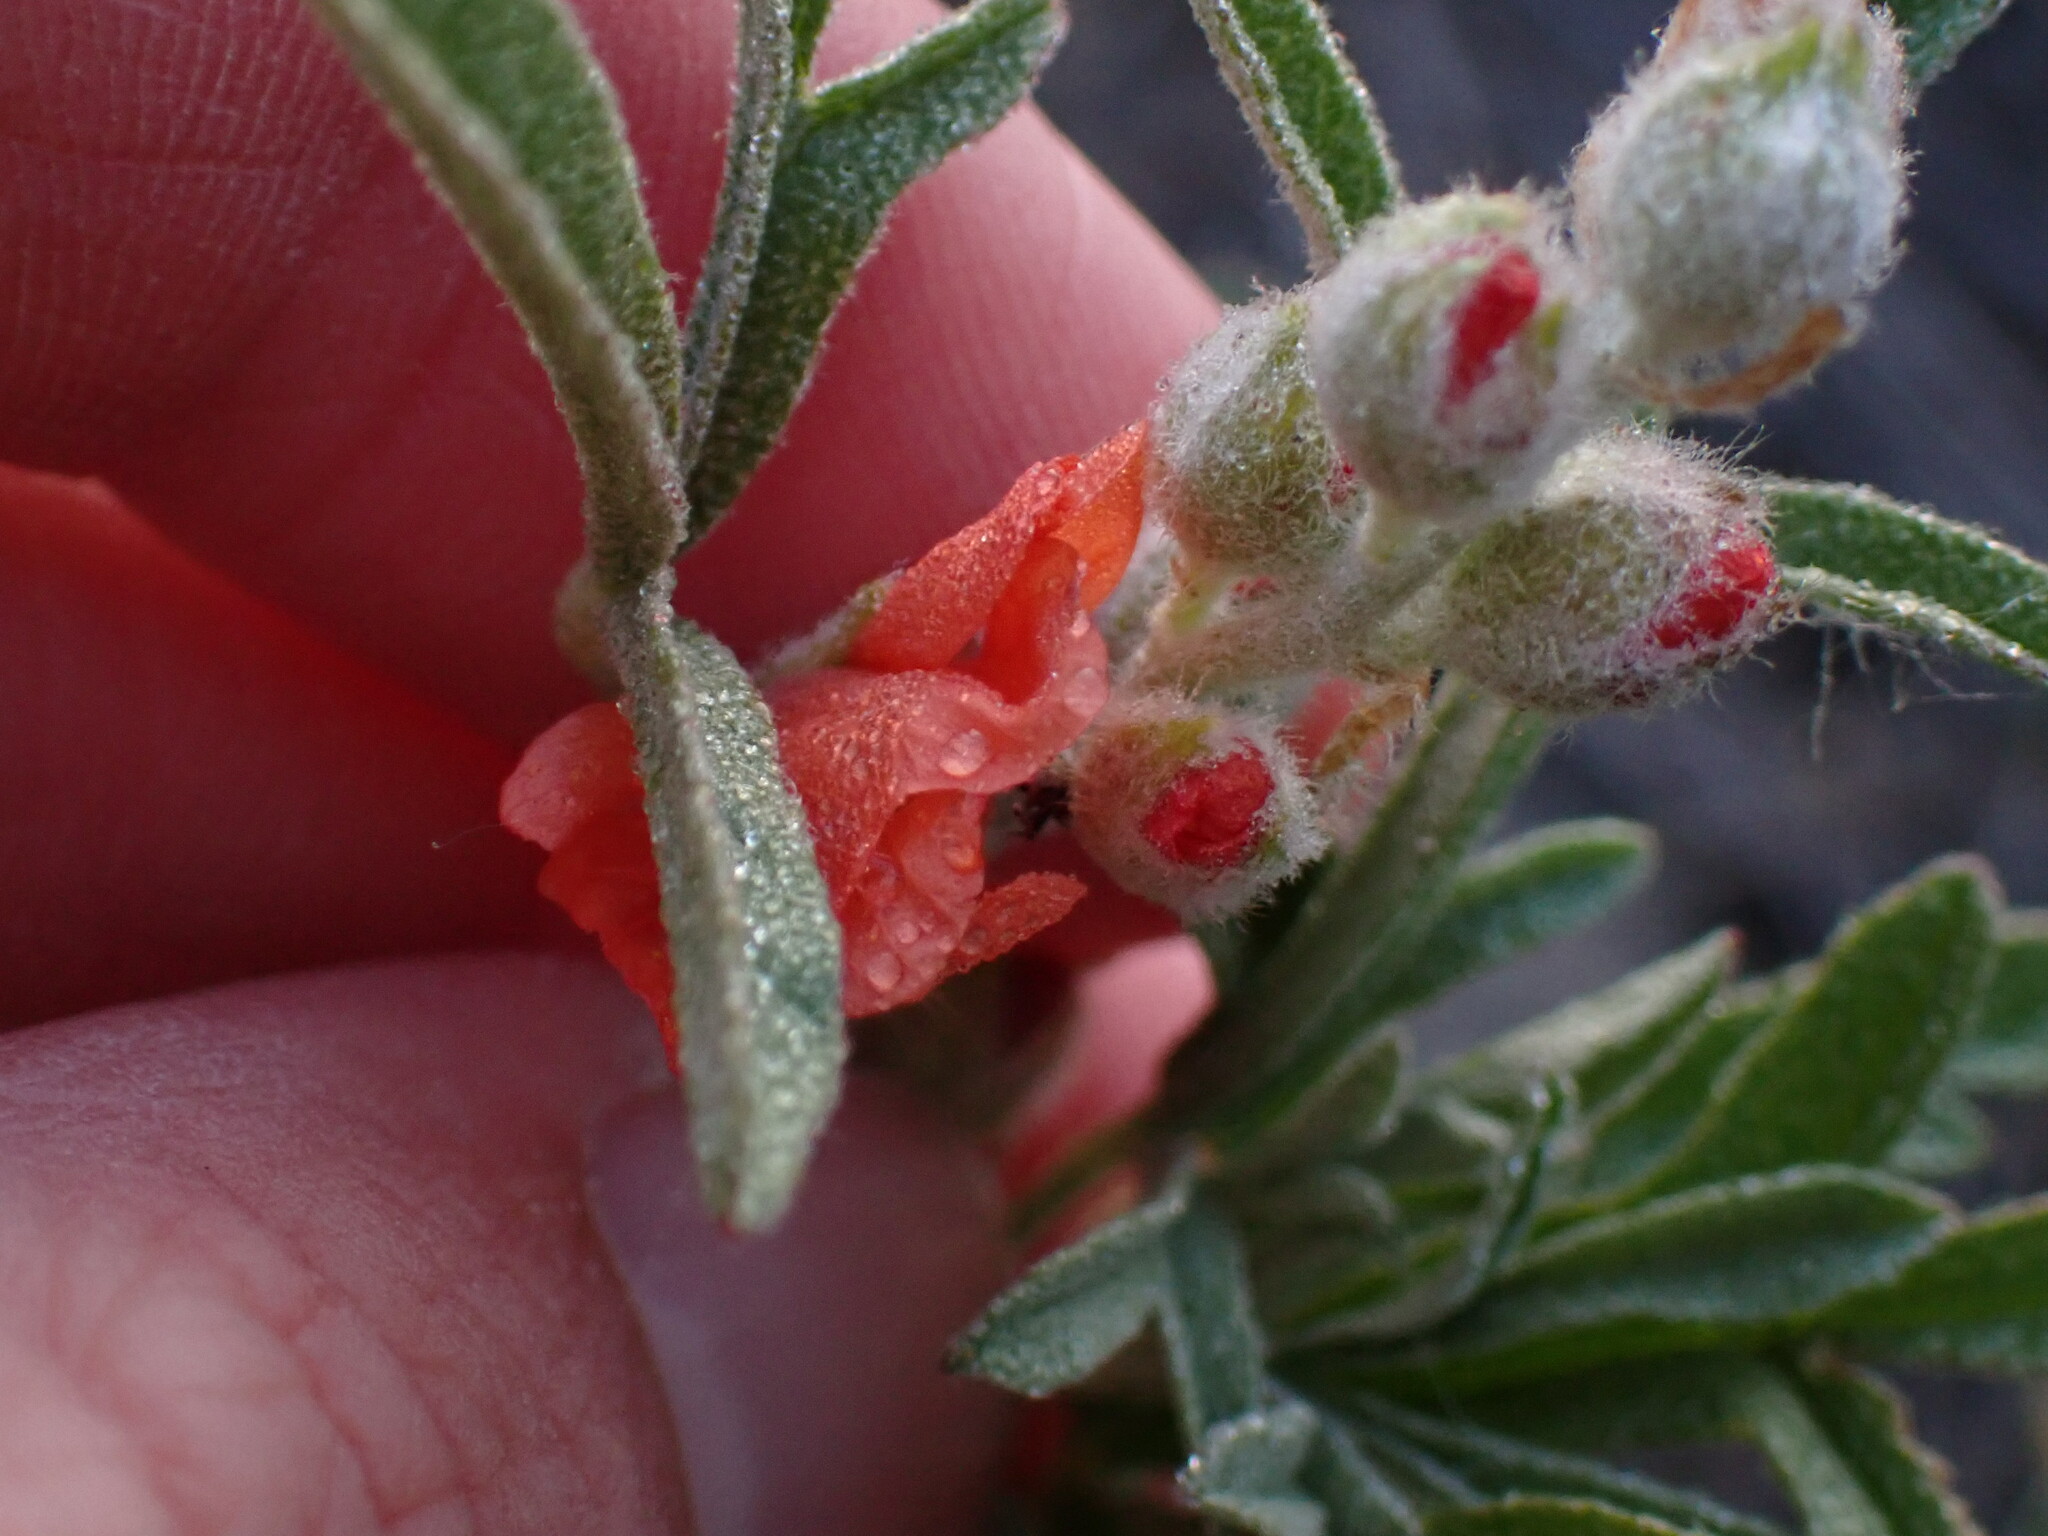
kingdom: Plantae
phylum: Tracheophyta
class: Magnoliopsida
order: Malvales
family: Malvaceae
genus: Sphaeralcea
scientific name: Sphaeralcea coccinea
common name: Moss-rose
